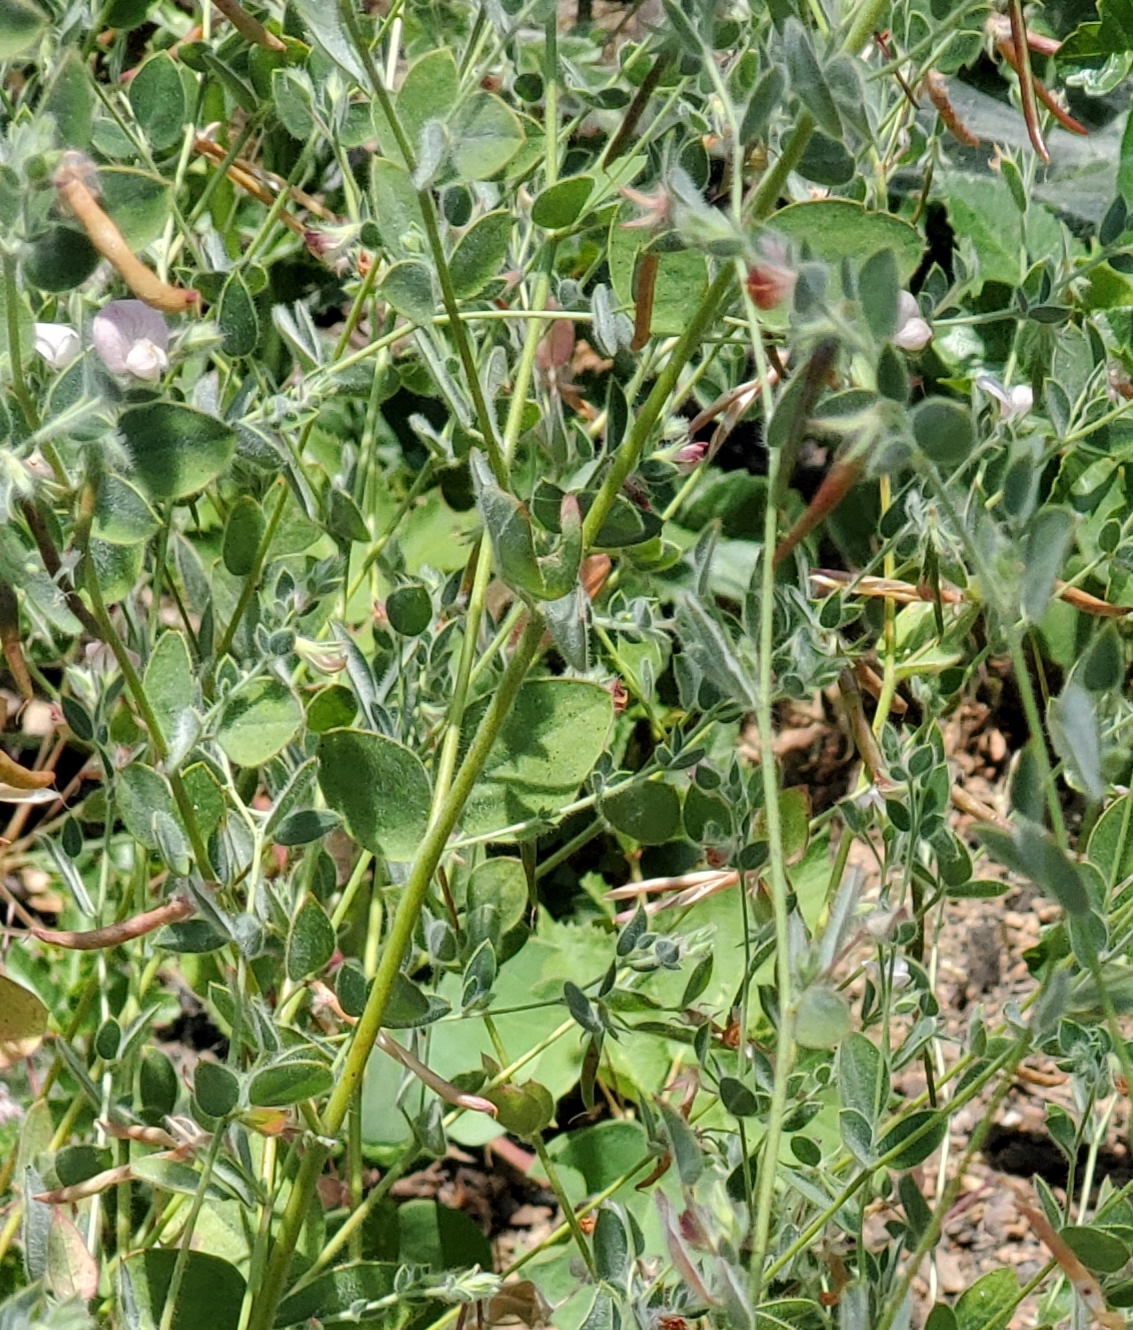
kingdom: Plantae
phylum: Tracheophyta
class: Magnoliopsida
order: Fabales
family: Fabaceae
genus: Acmispon
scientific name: Acmispon americanus
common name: American bird's-foot trefoil
